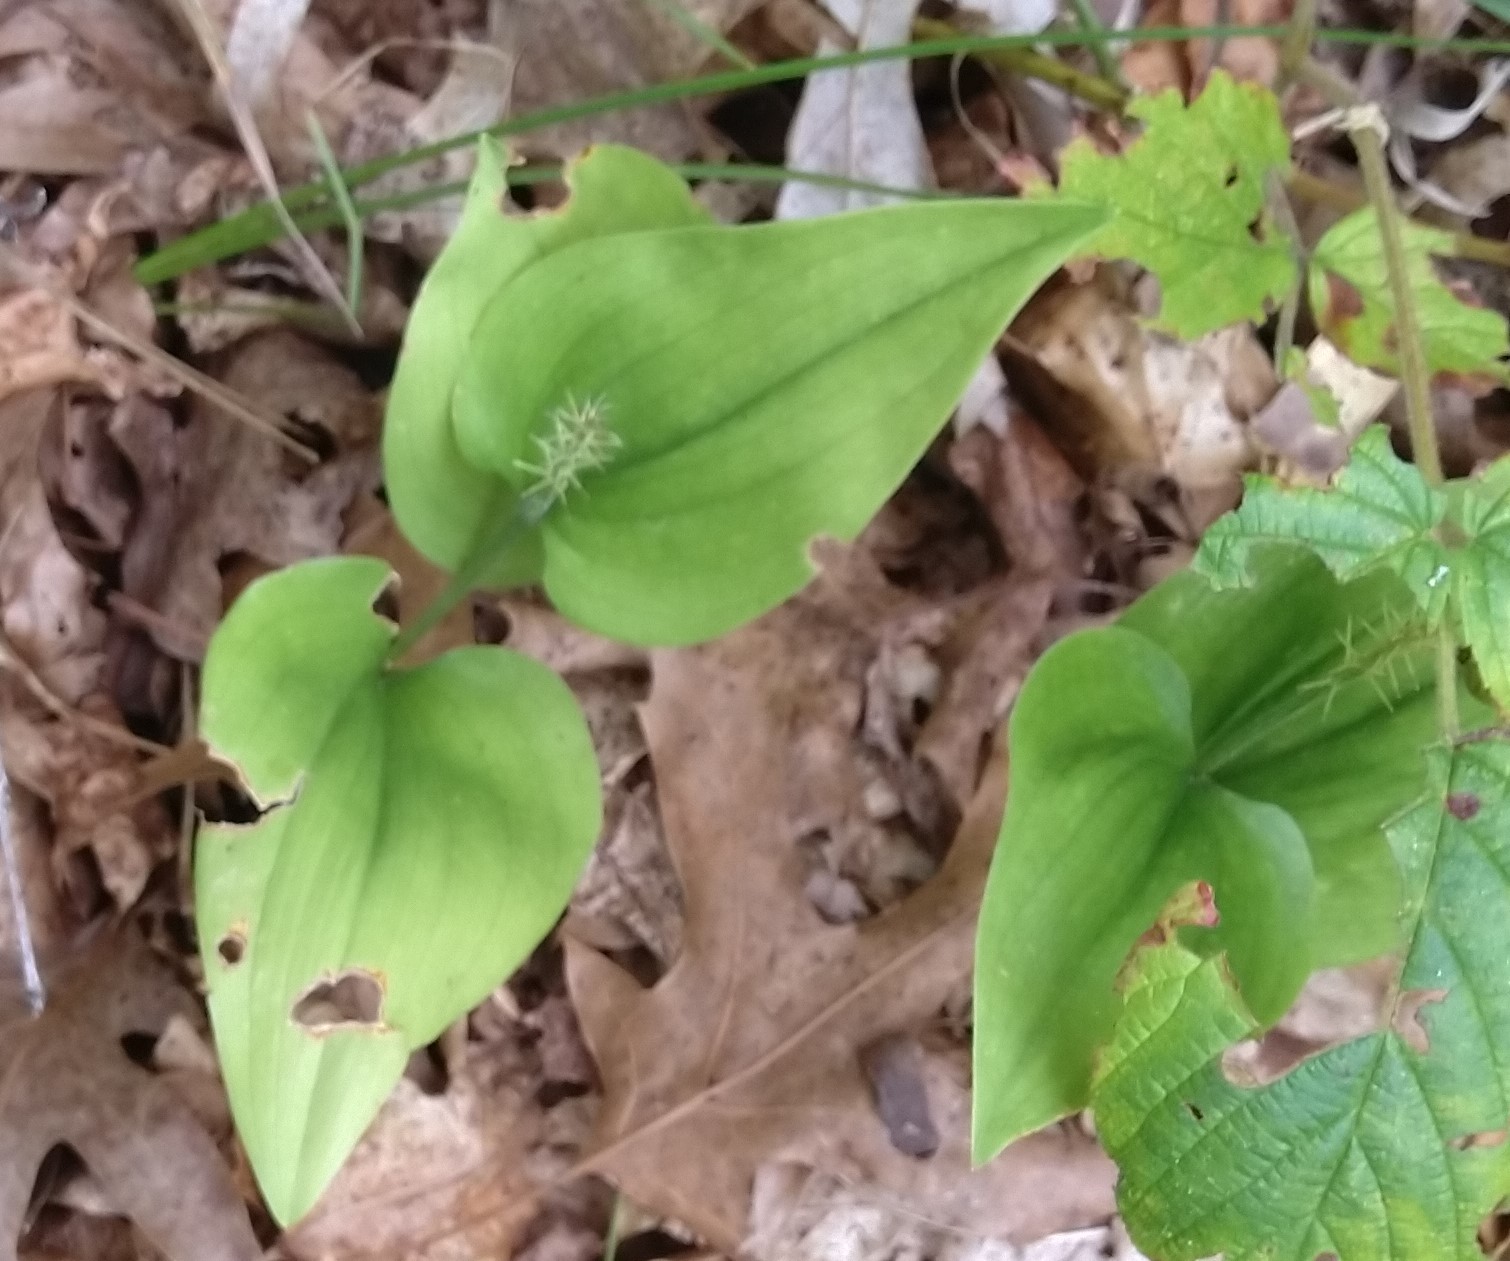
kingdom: Plantae
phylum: Tracheophyta
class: Liliopsida
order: Asparagales
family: Asparagaceae
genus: Maianthemum
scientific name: Maianthemum canadense
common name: False lily-of-the-valley
